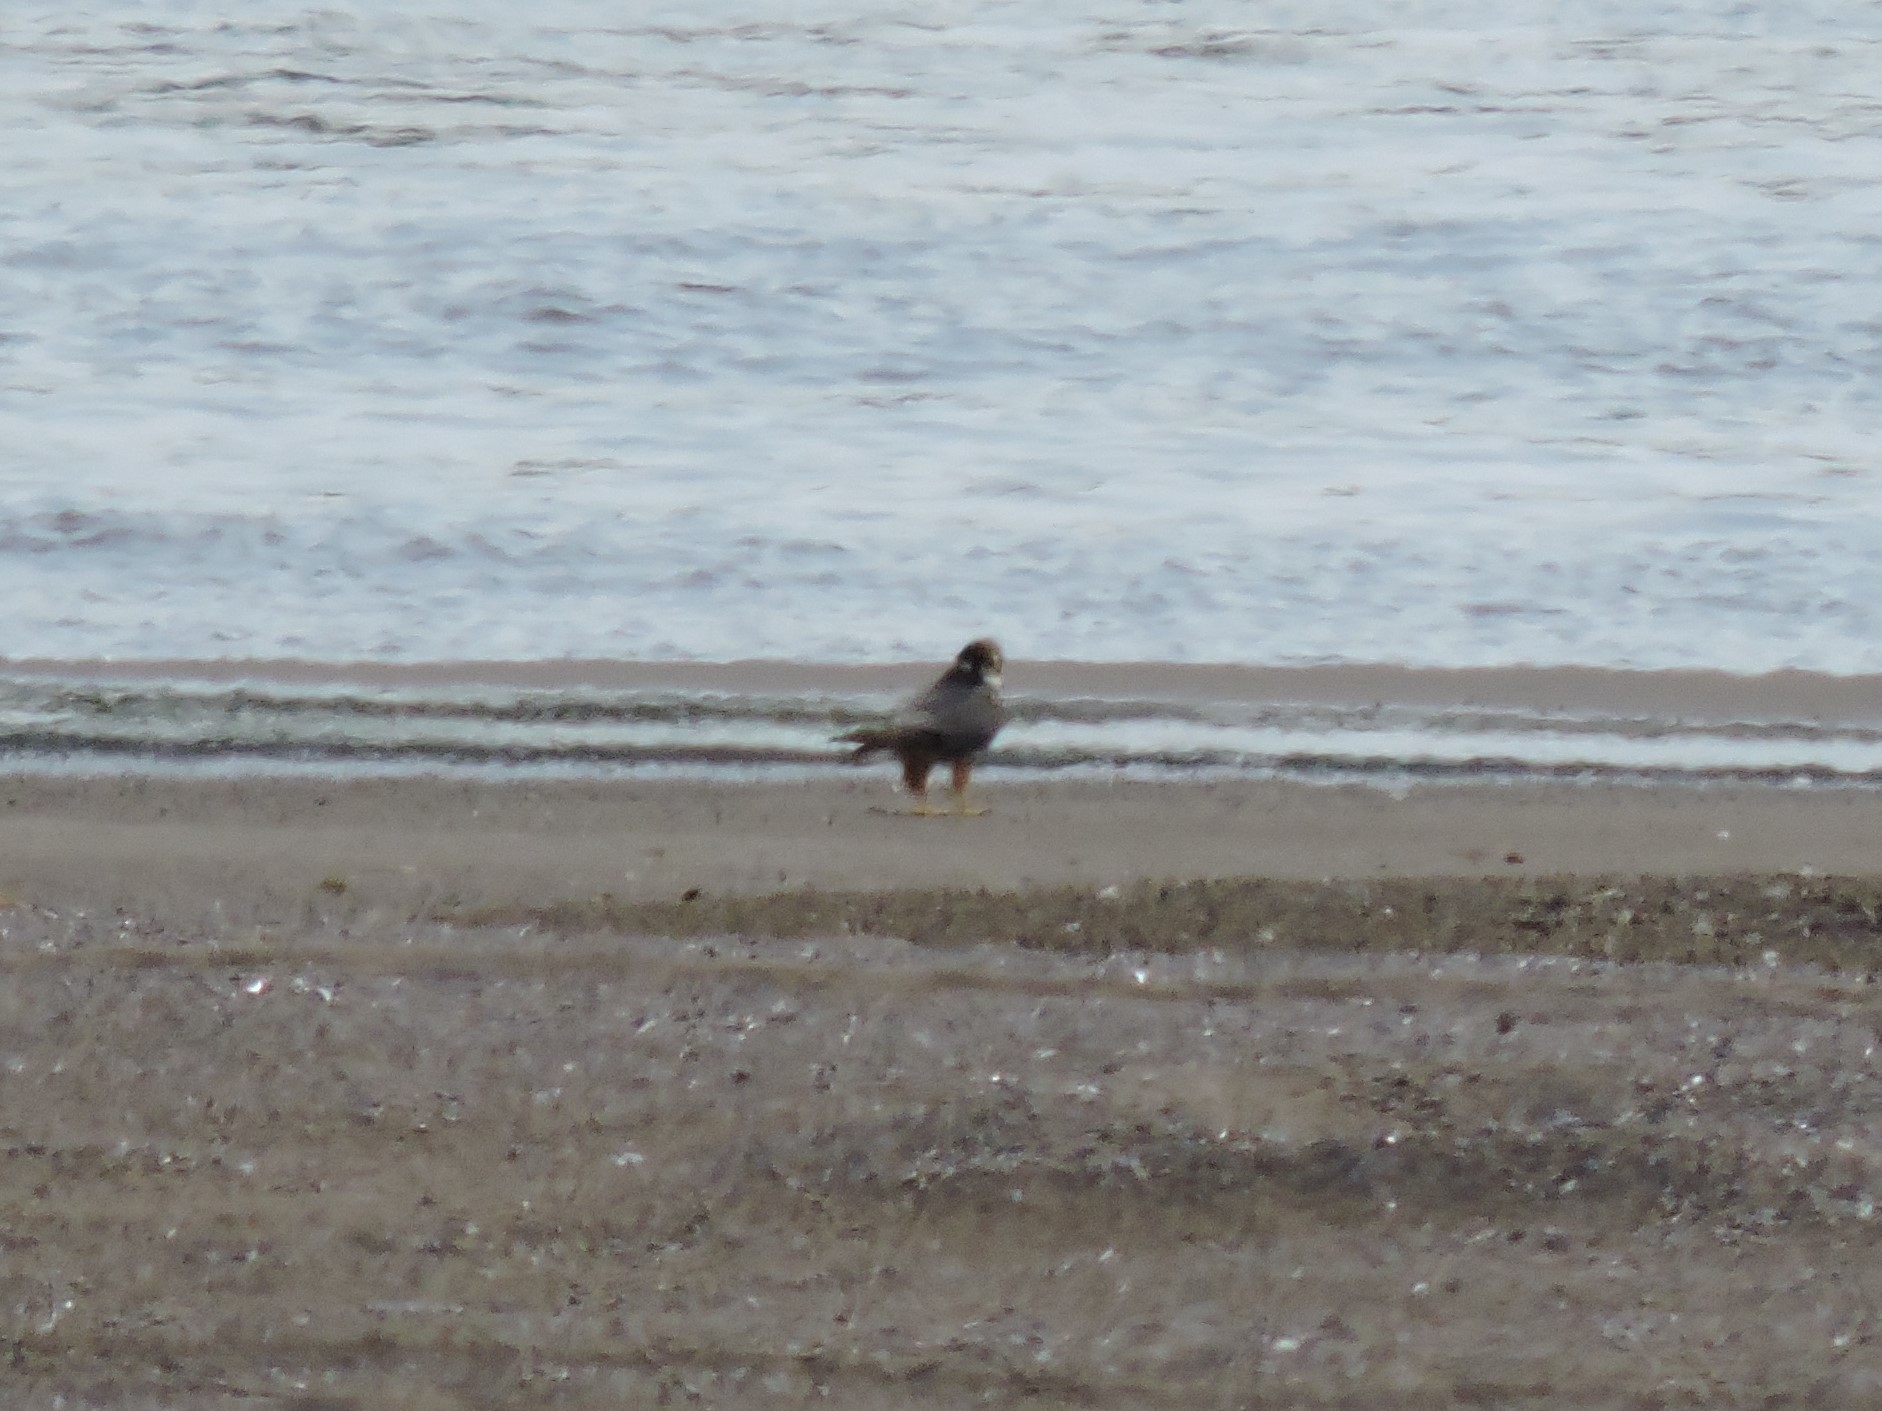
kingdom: Animalia
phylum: Chordata
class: Aves
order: Falconiformes
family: Falconidae
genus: Falco
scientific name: Falco subbuteo
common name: Eurasian hobby
